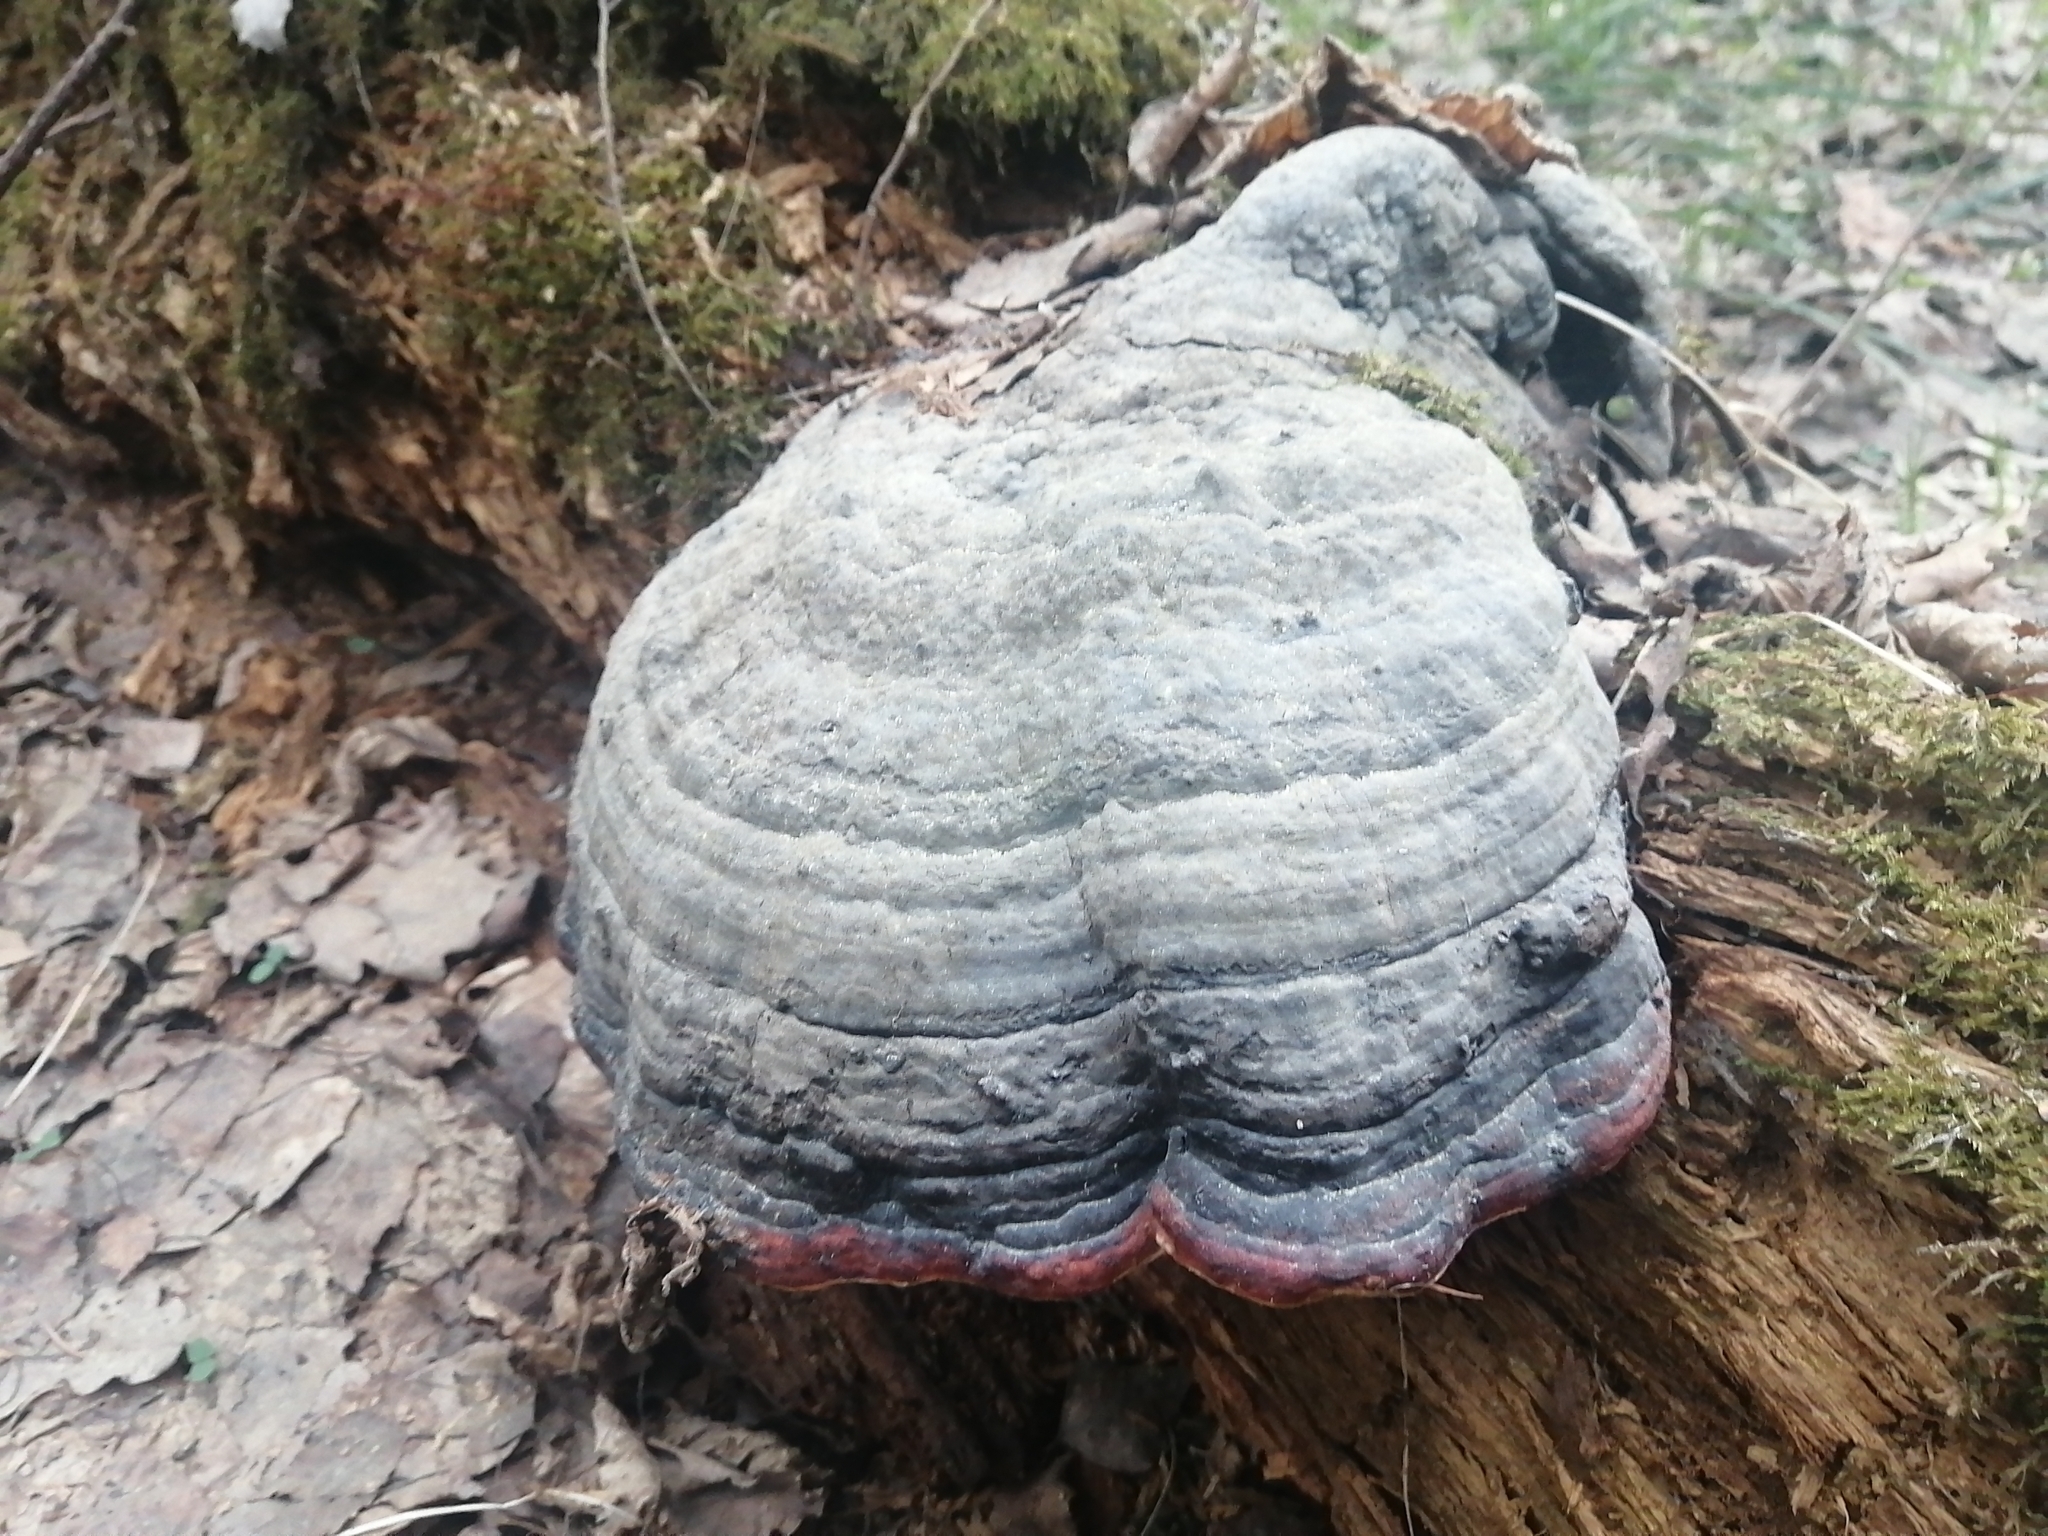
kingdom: Fungi
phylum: Basidiomycota
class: Agaricomycetes
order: Polyporales
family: Fomitopsidaceae
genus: Fomitopsis
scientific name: Fomitopsis pinicola
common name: Red-belted bracket
